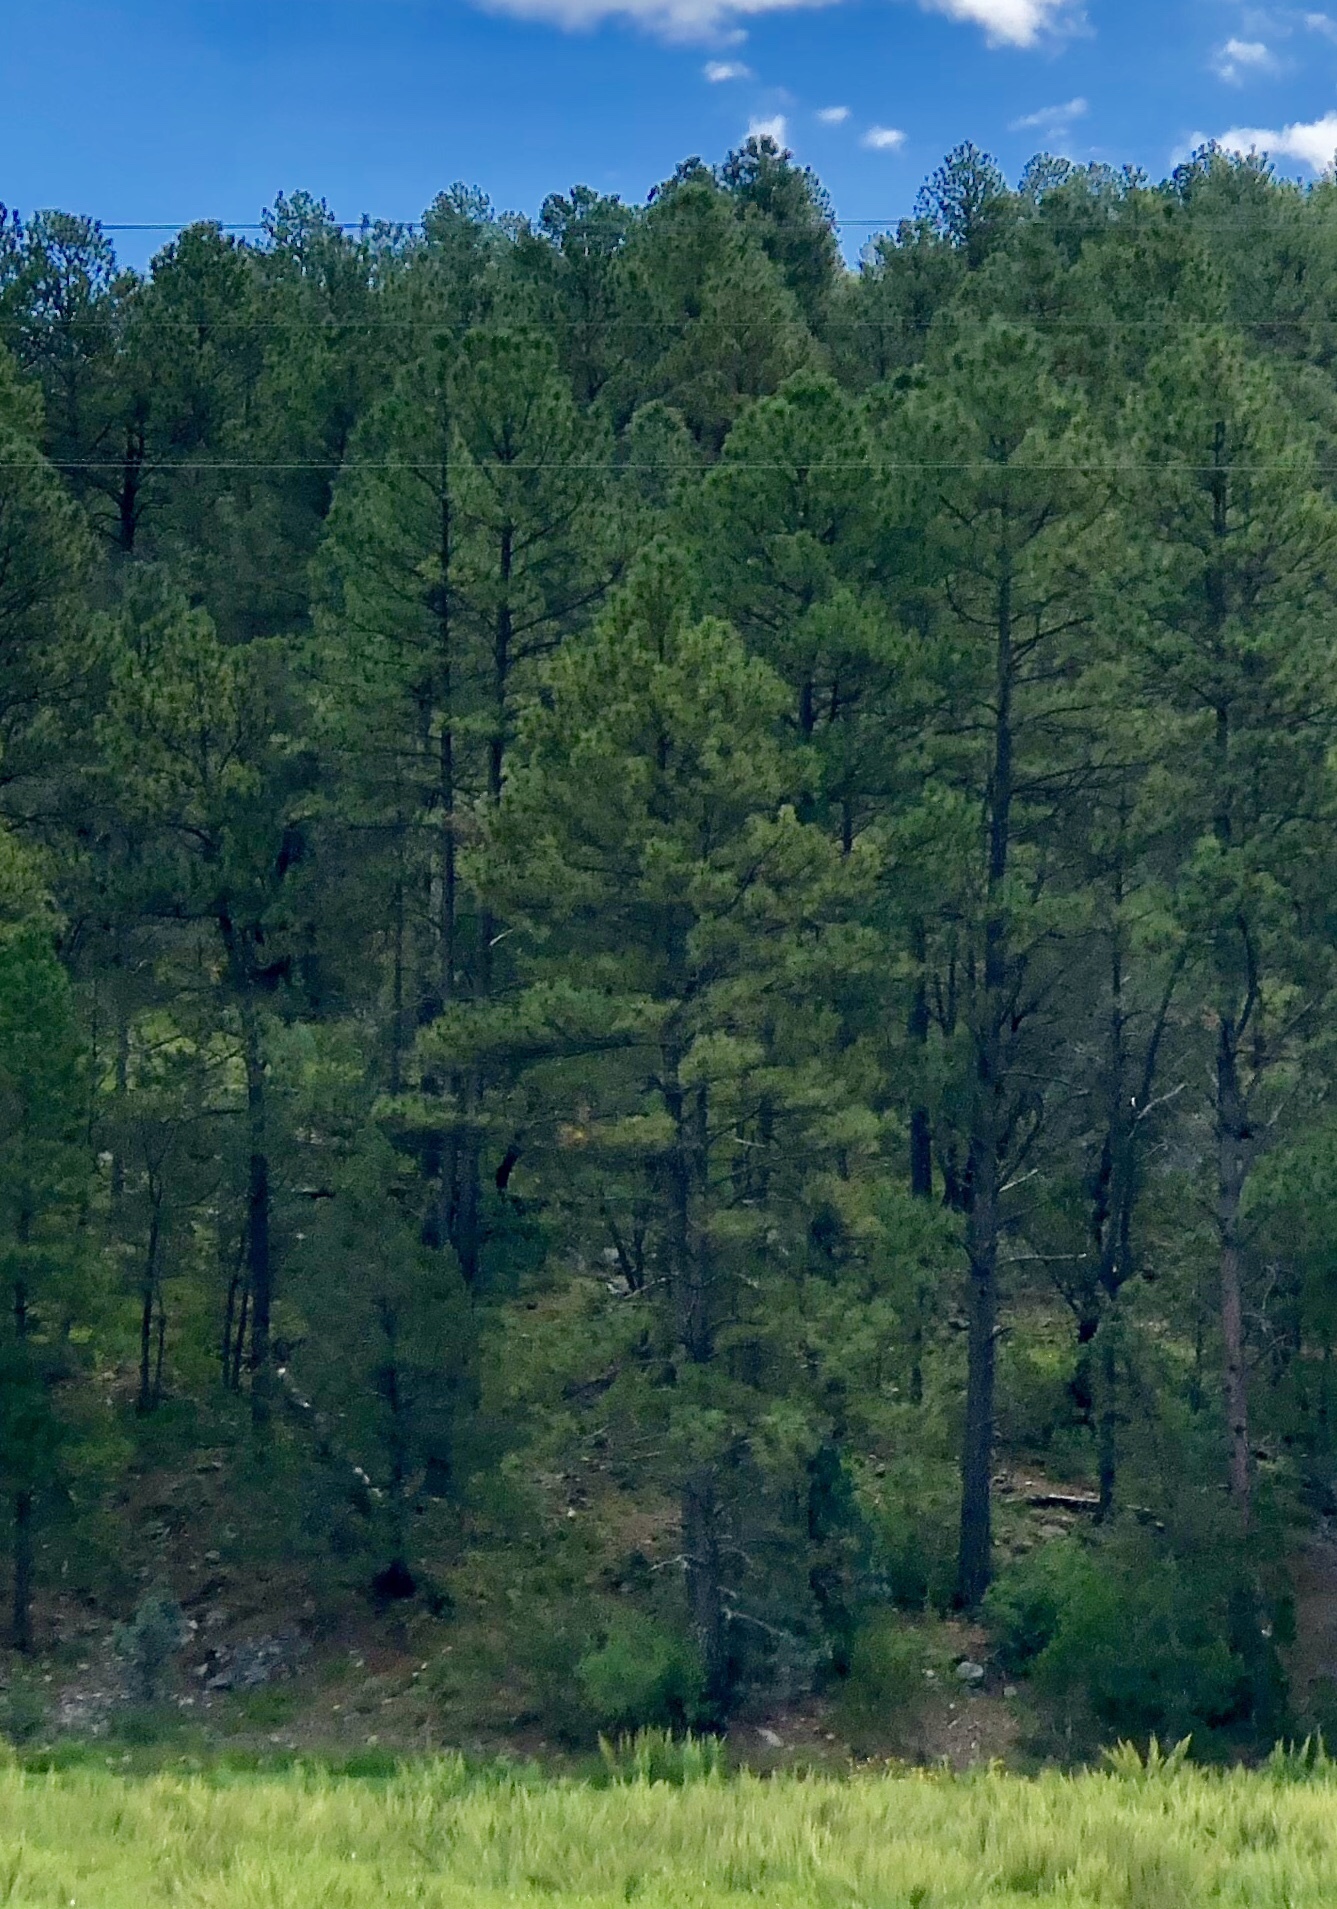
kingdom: Plantae
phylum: Tracheophyta
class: Pinopsida
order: Pinales
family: Pinaceae
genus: Pinus
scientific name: Pinus ponderosa
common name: Western yellow-pine
